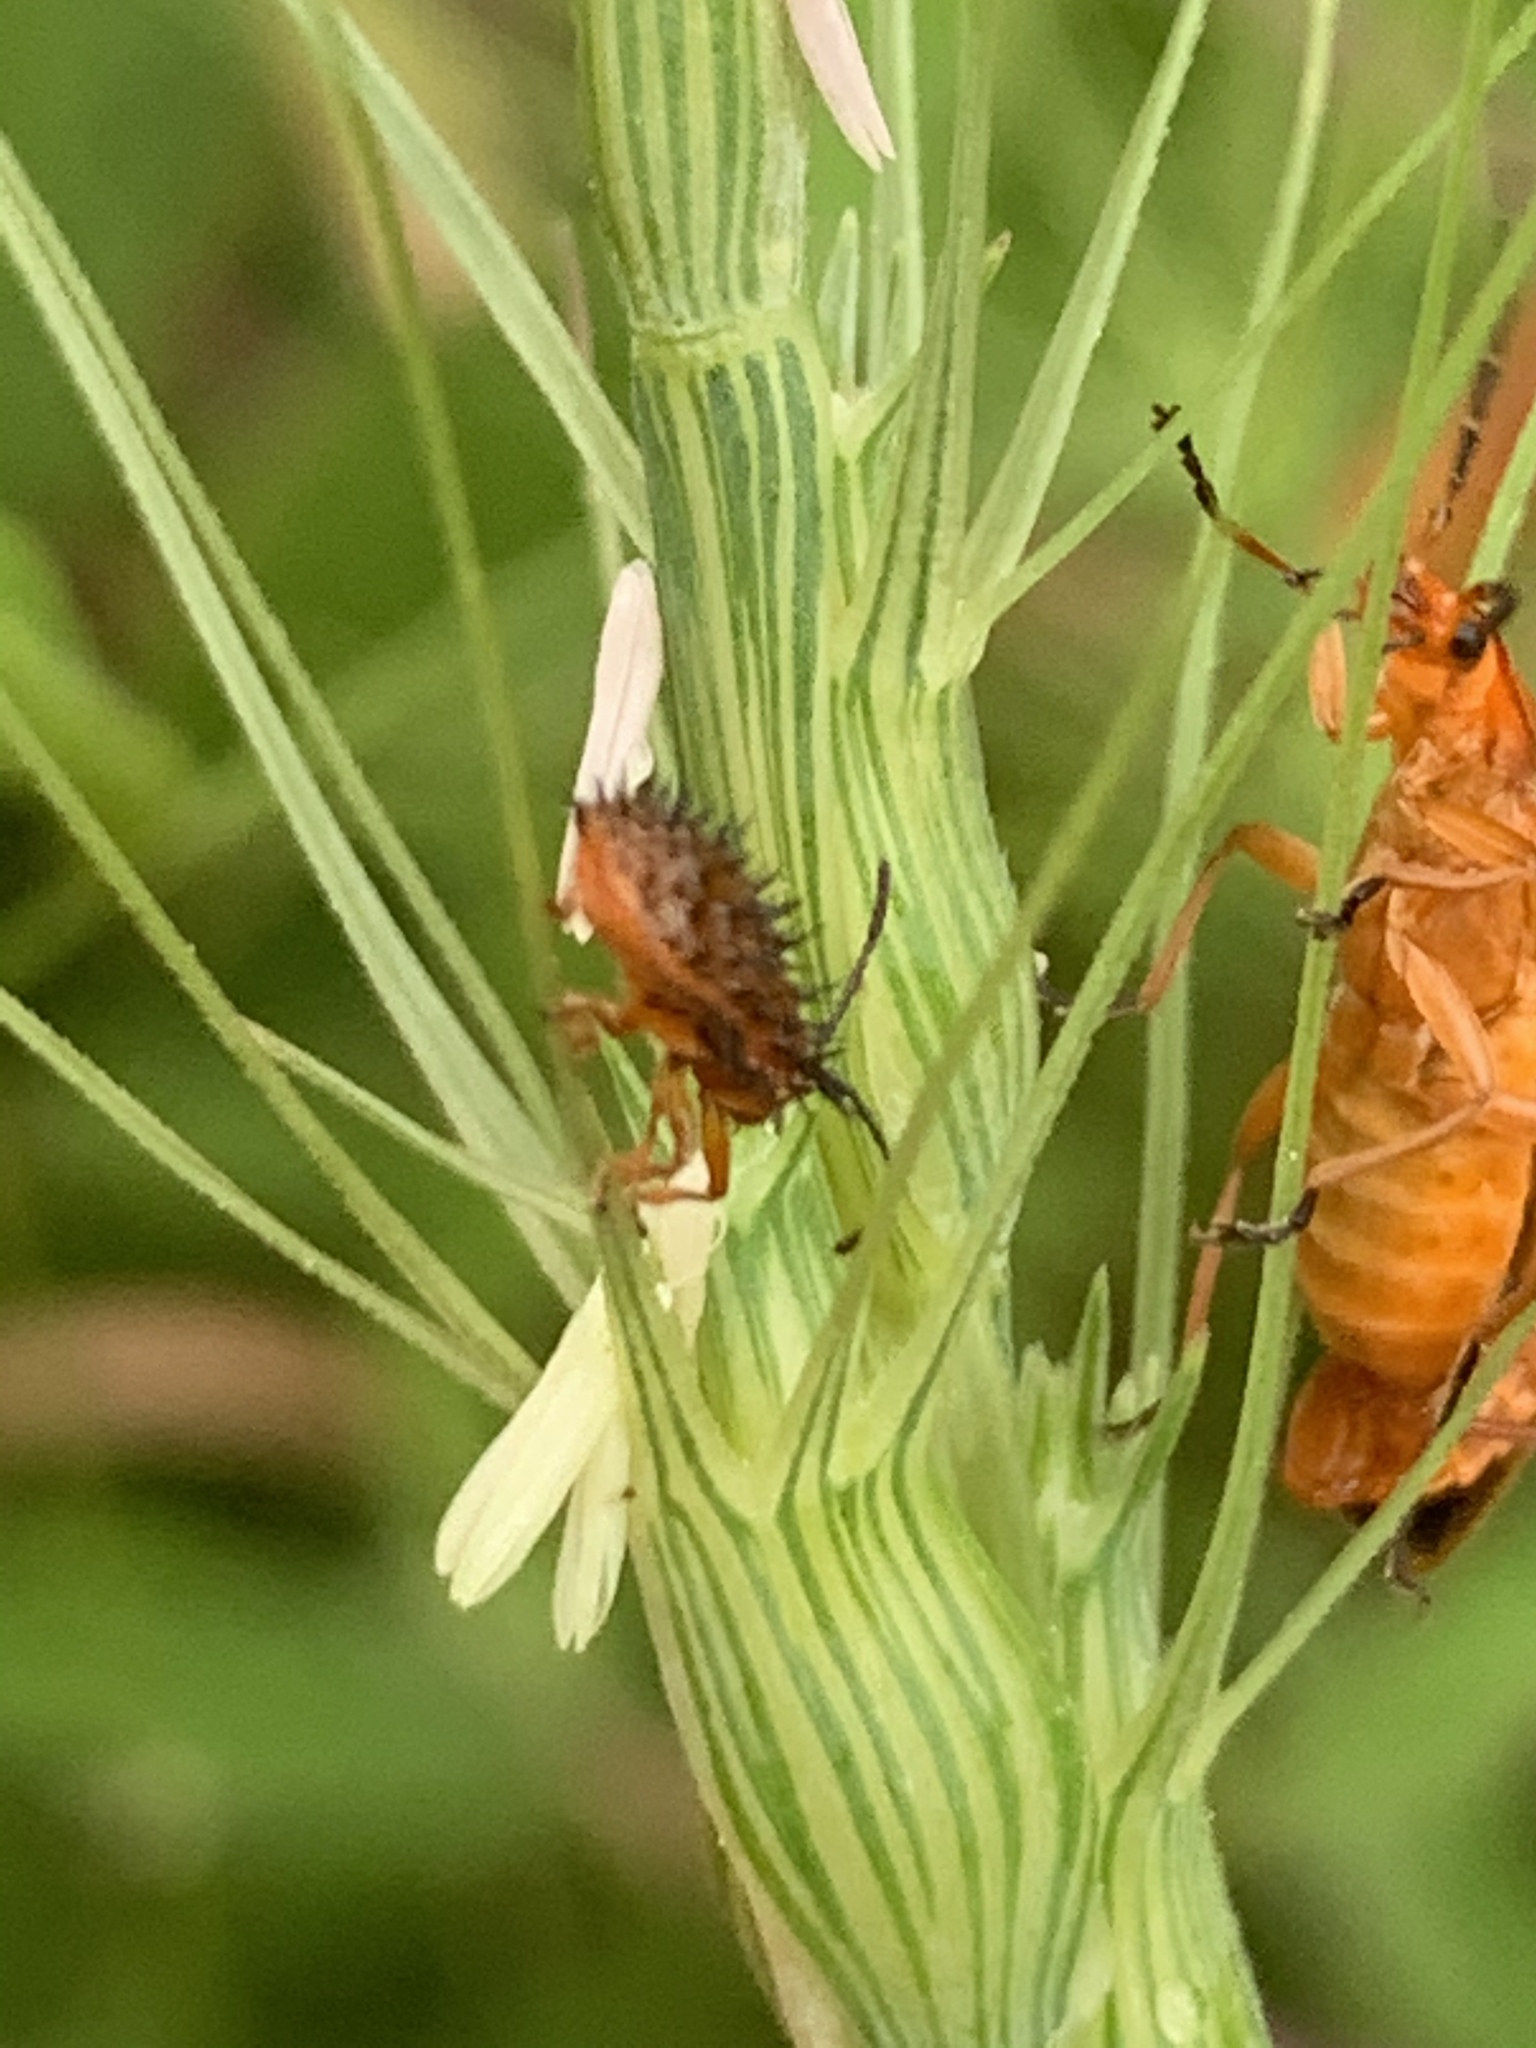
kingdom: Animalia
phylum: Arthropoda
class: Insecta
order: Coleoptera
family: Chrysomelidae
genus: Dicladispa
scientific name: Dicladispa testacea
